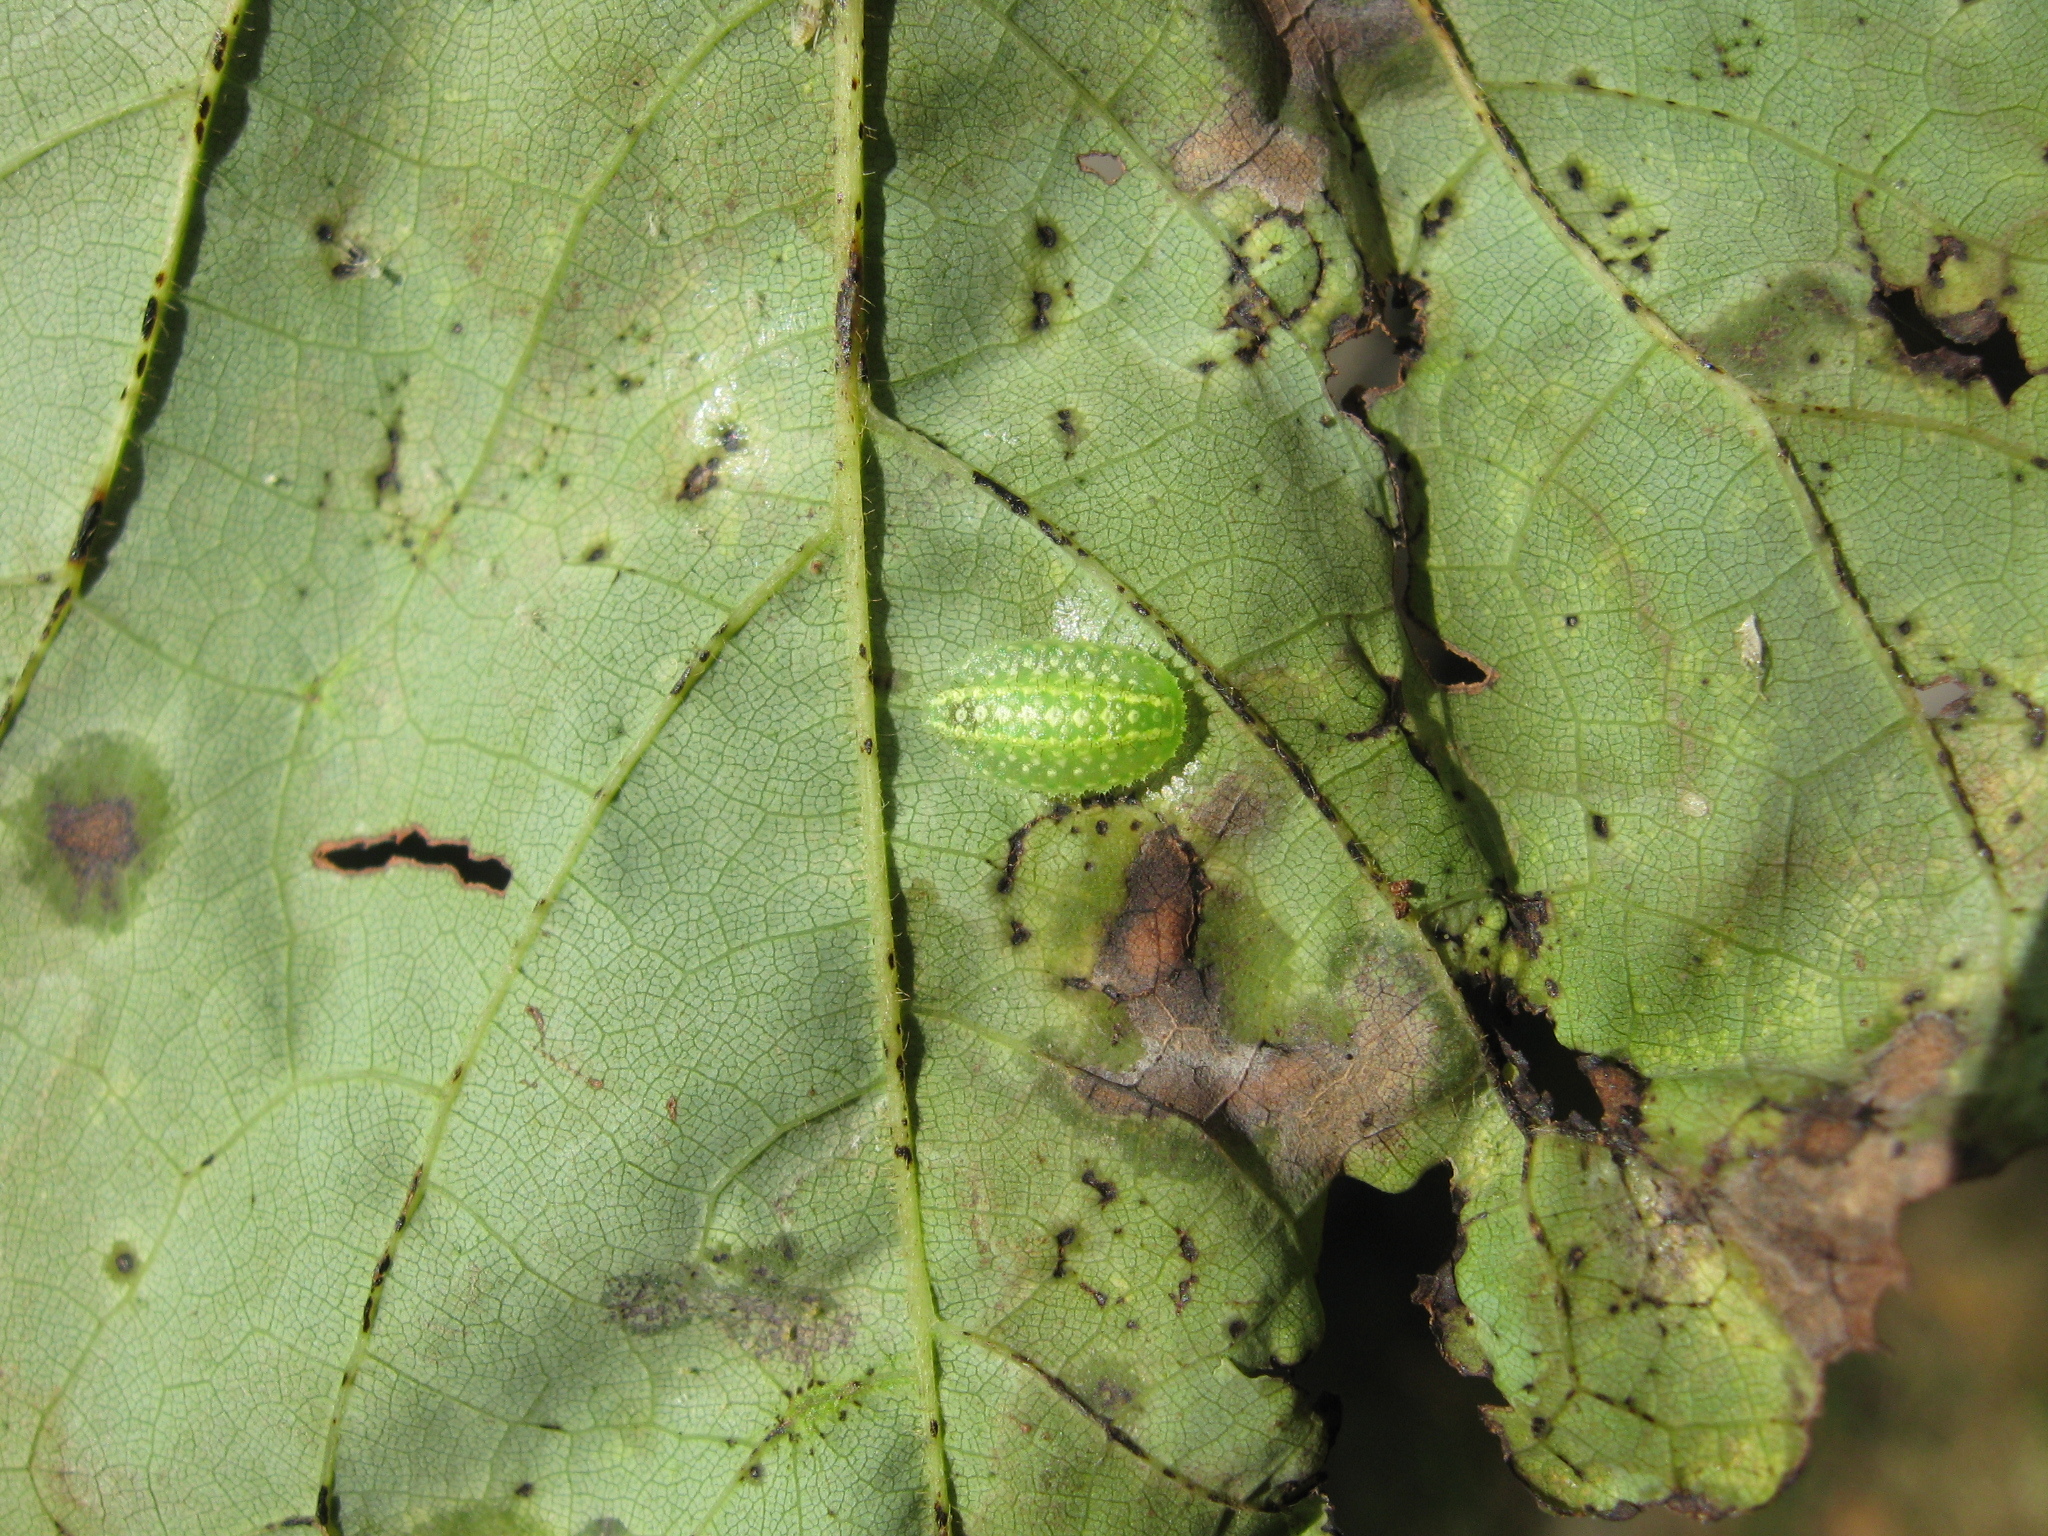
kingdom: Animalia
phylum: Arthropoda
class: Insecta
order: Lepidoptera
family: Limacodidae
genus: Lithacodes
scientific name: Lithacodes fasciola
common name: Yellow-shouldered slug moth
